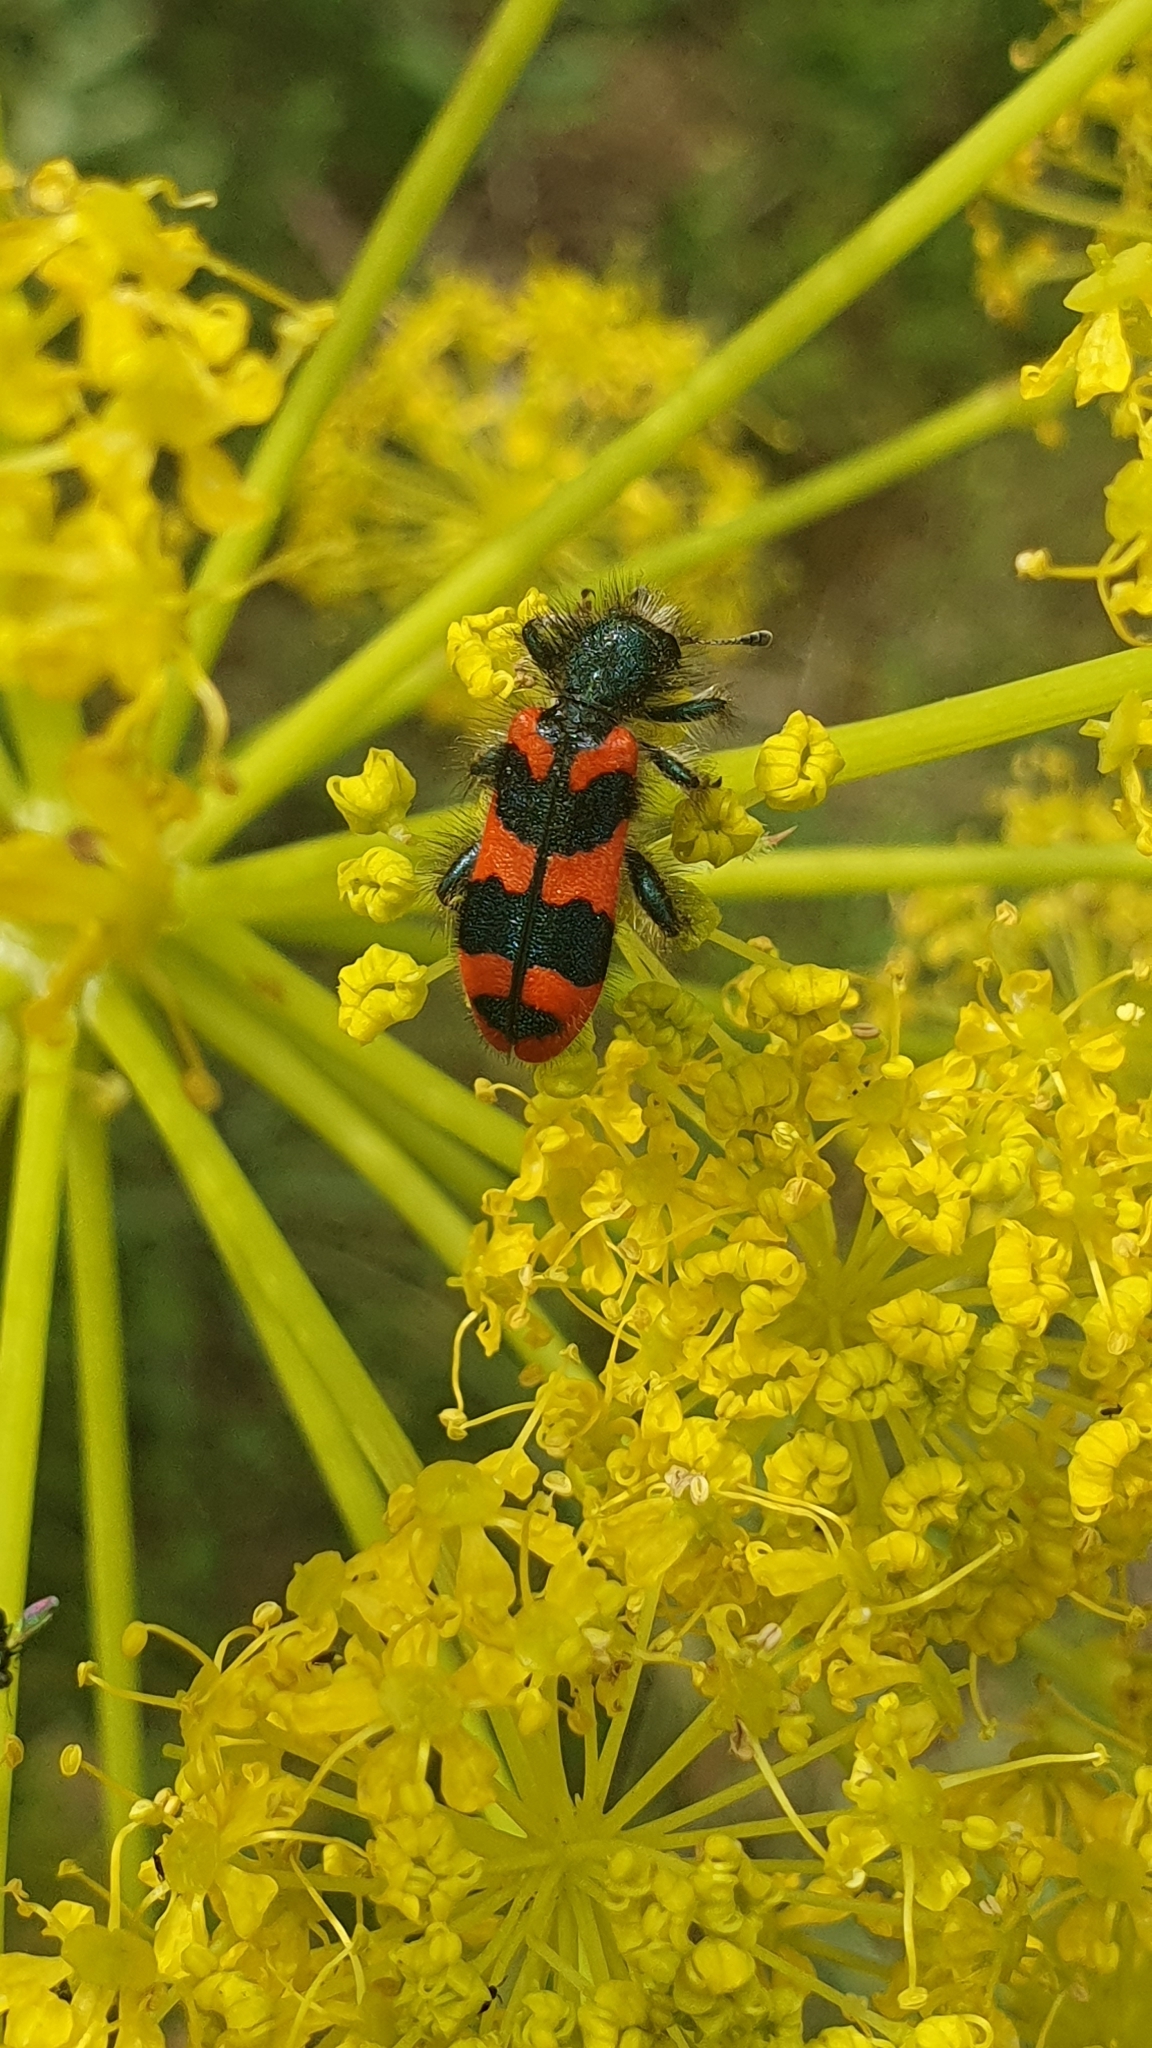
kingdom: Animalia
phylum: Arthropoda
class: Insecta
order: Coleoptera
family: Cleridae
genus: Trichodes
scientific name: Trichodes alvearius
